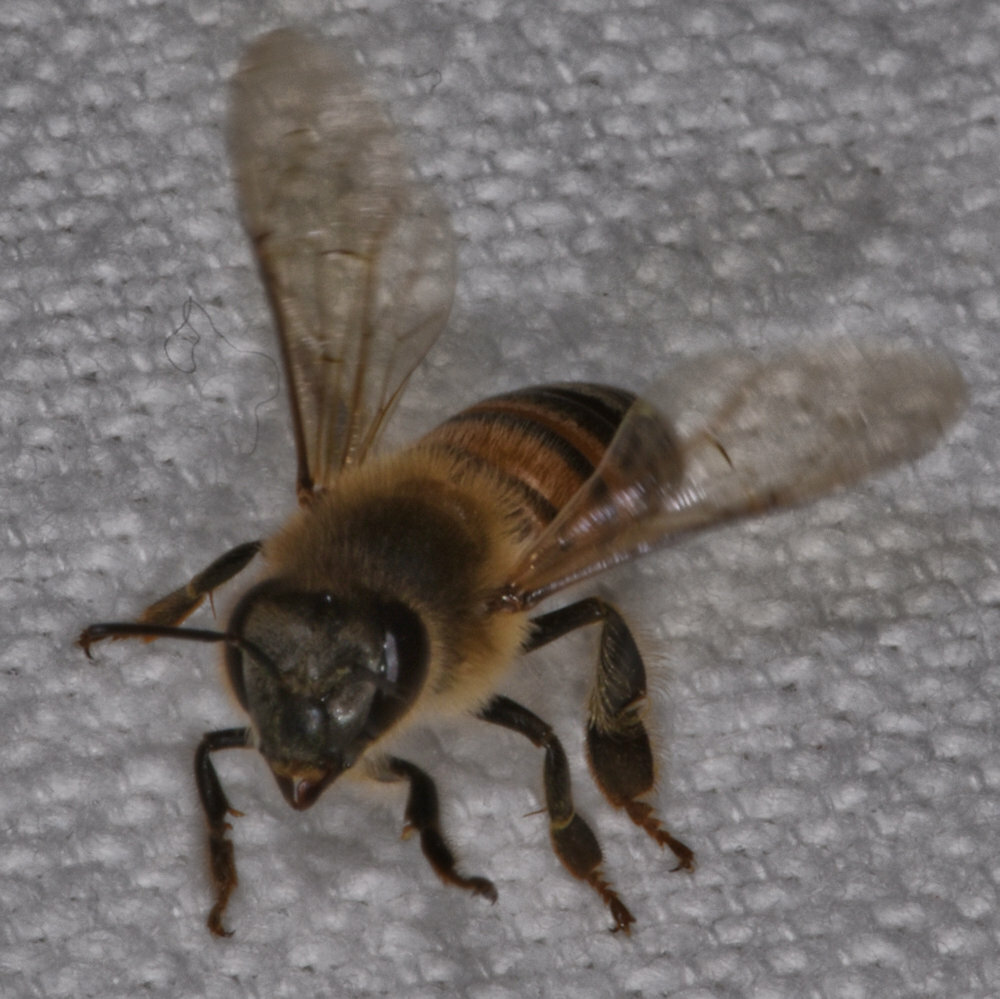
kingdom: Animalia
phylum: Arthropoda
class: Insecta
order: Hymenoptera
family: Apidae
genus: Apis
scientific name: Apis mellifera
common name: Honey bee
